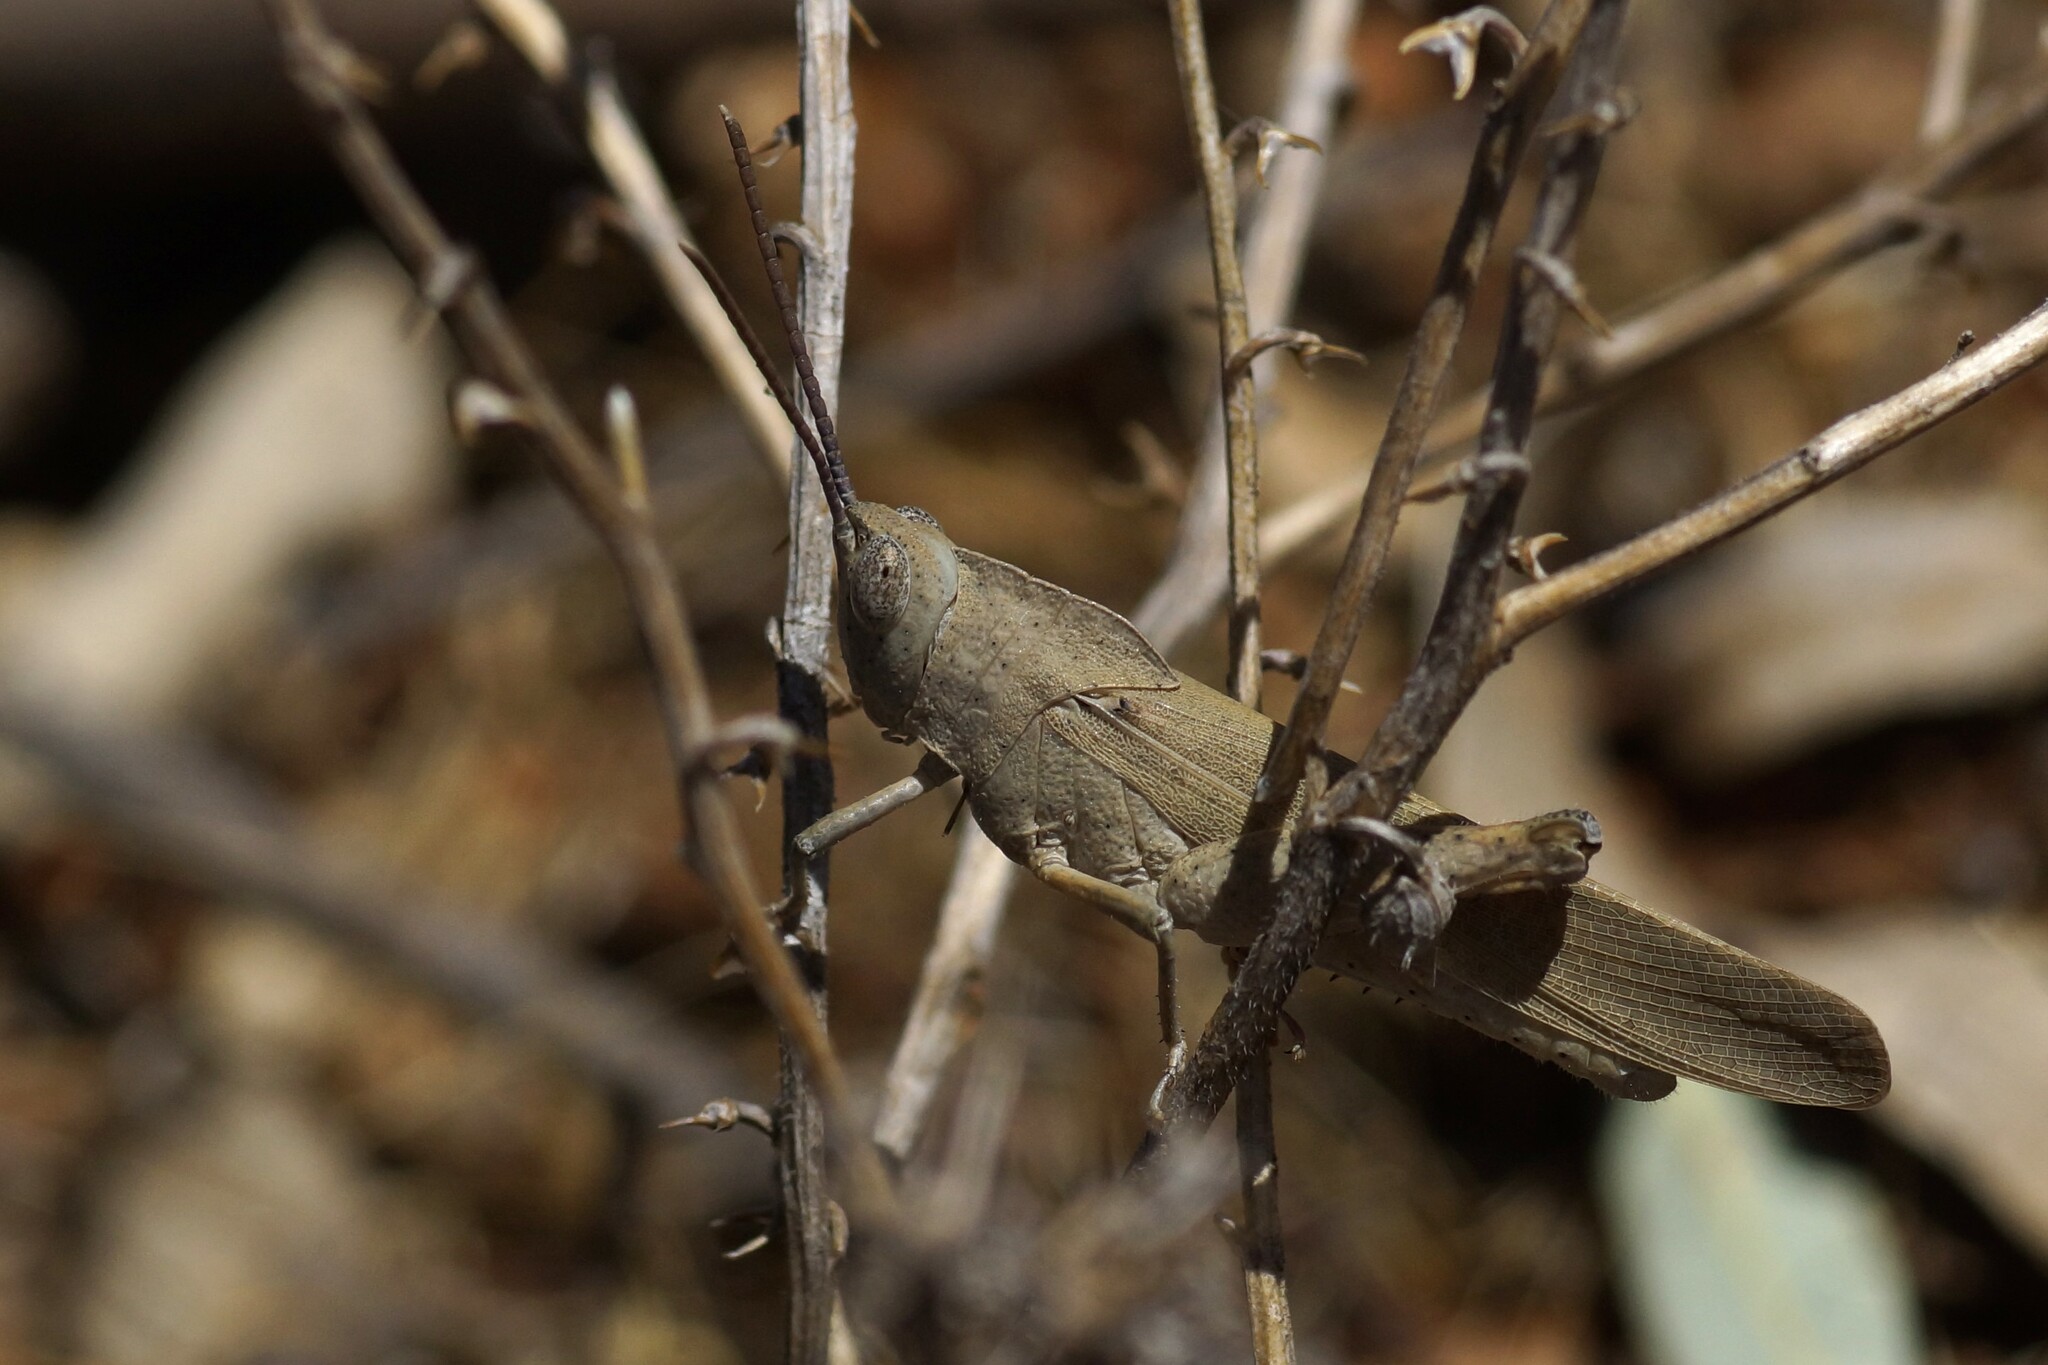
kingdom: Animalia
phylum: Arthropoda
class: Insecta
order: Orthoptera
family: Acrididae
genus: Goniaea
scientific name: Goniaea vocans
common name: Slender gumleaf grasshopper
